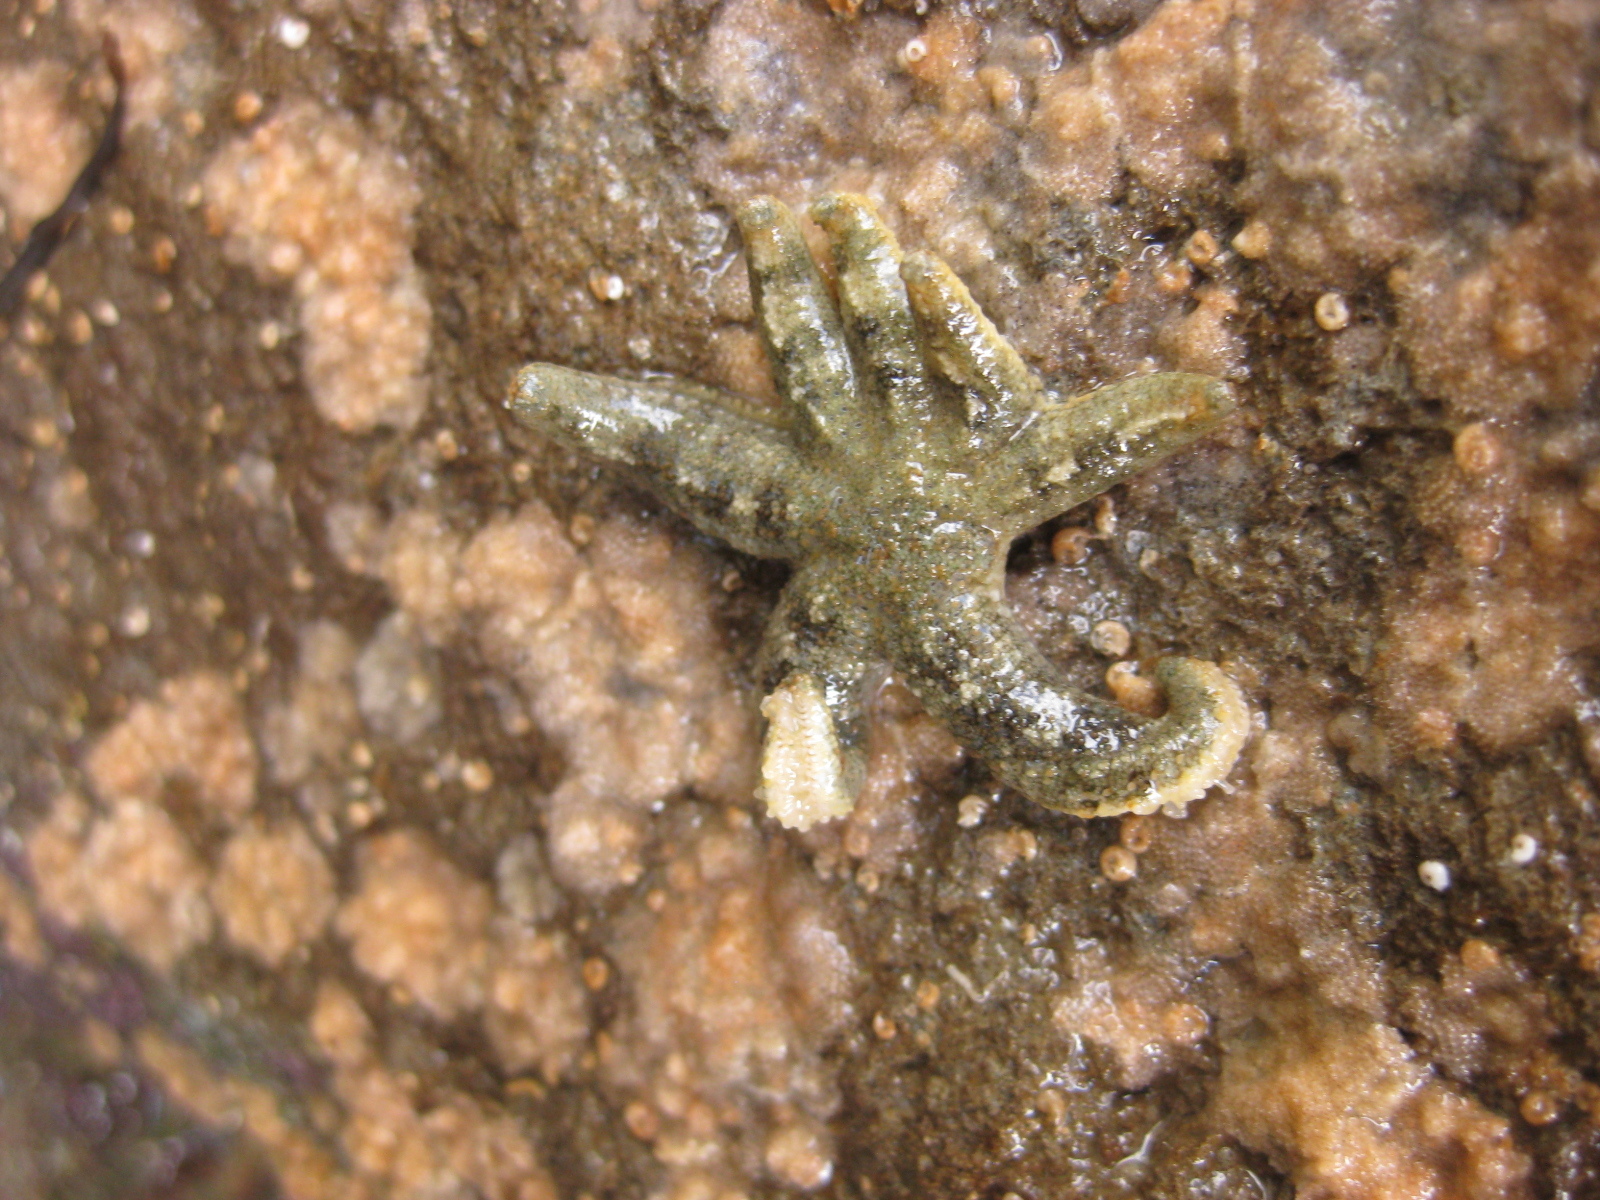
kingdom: Animalia
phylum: Echinodermata
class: Asteroidea
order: Forcipulatida
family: Stichasteridae
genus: Allostichaster
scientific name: Allostichaster polyplax
